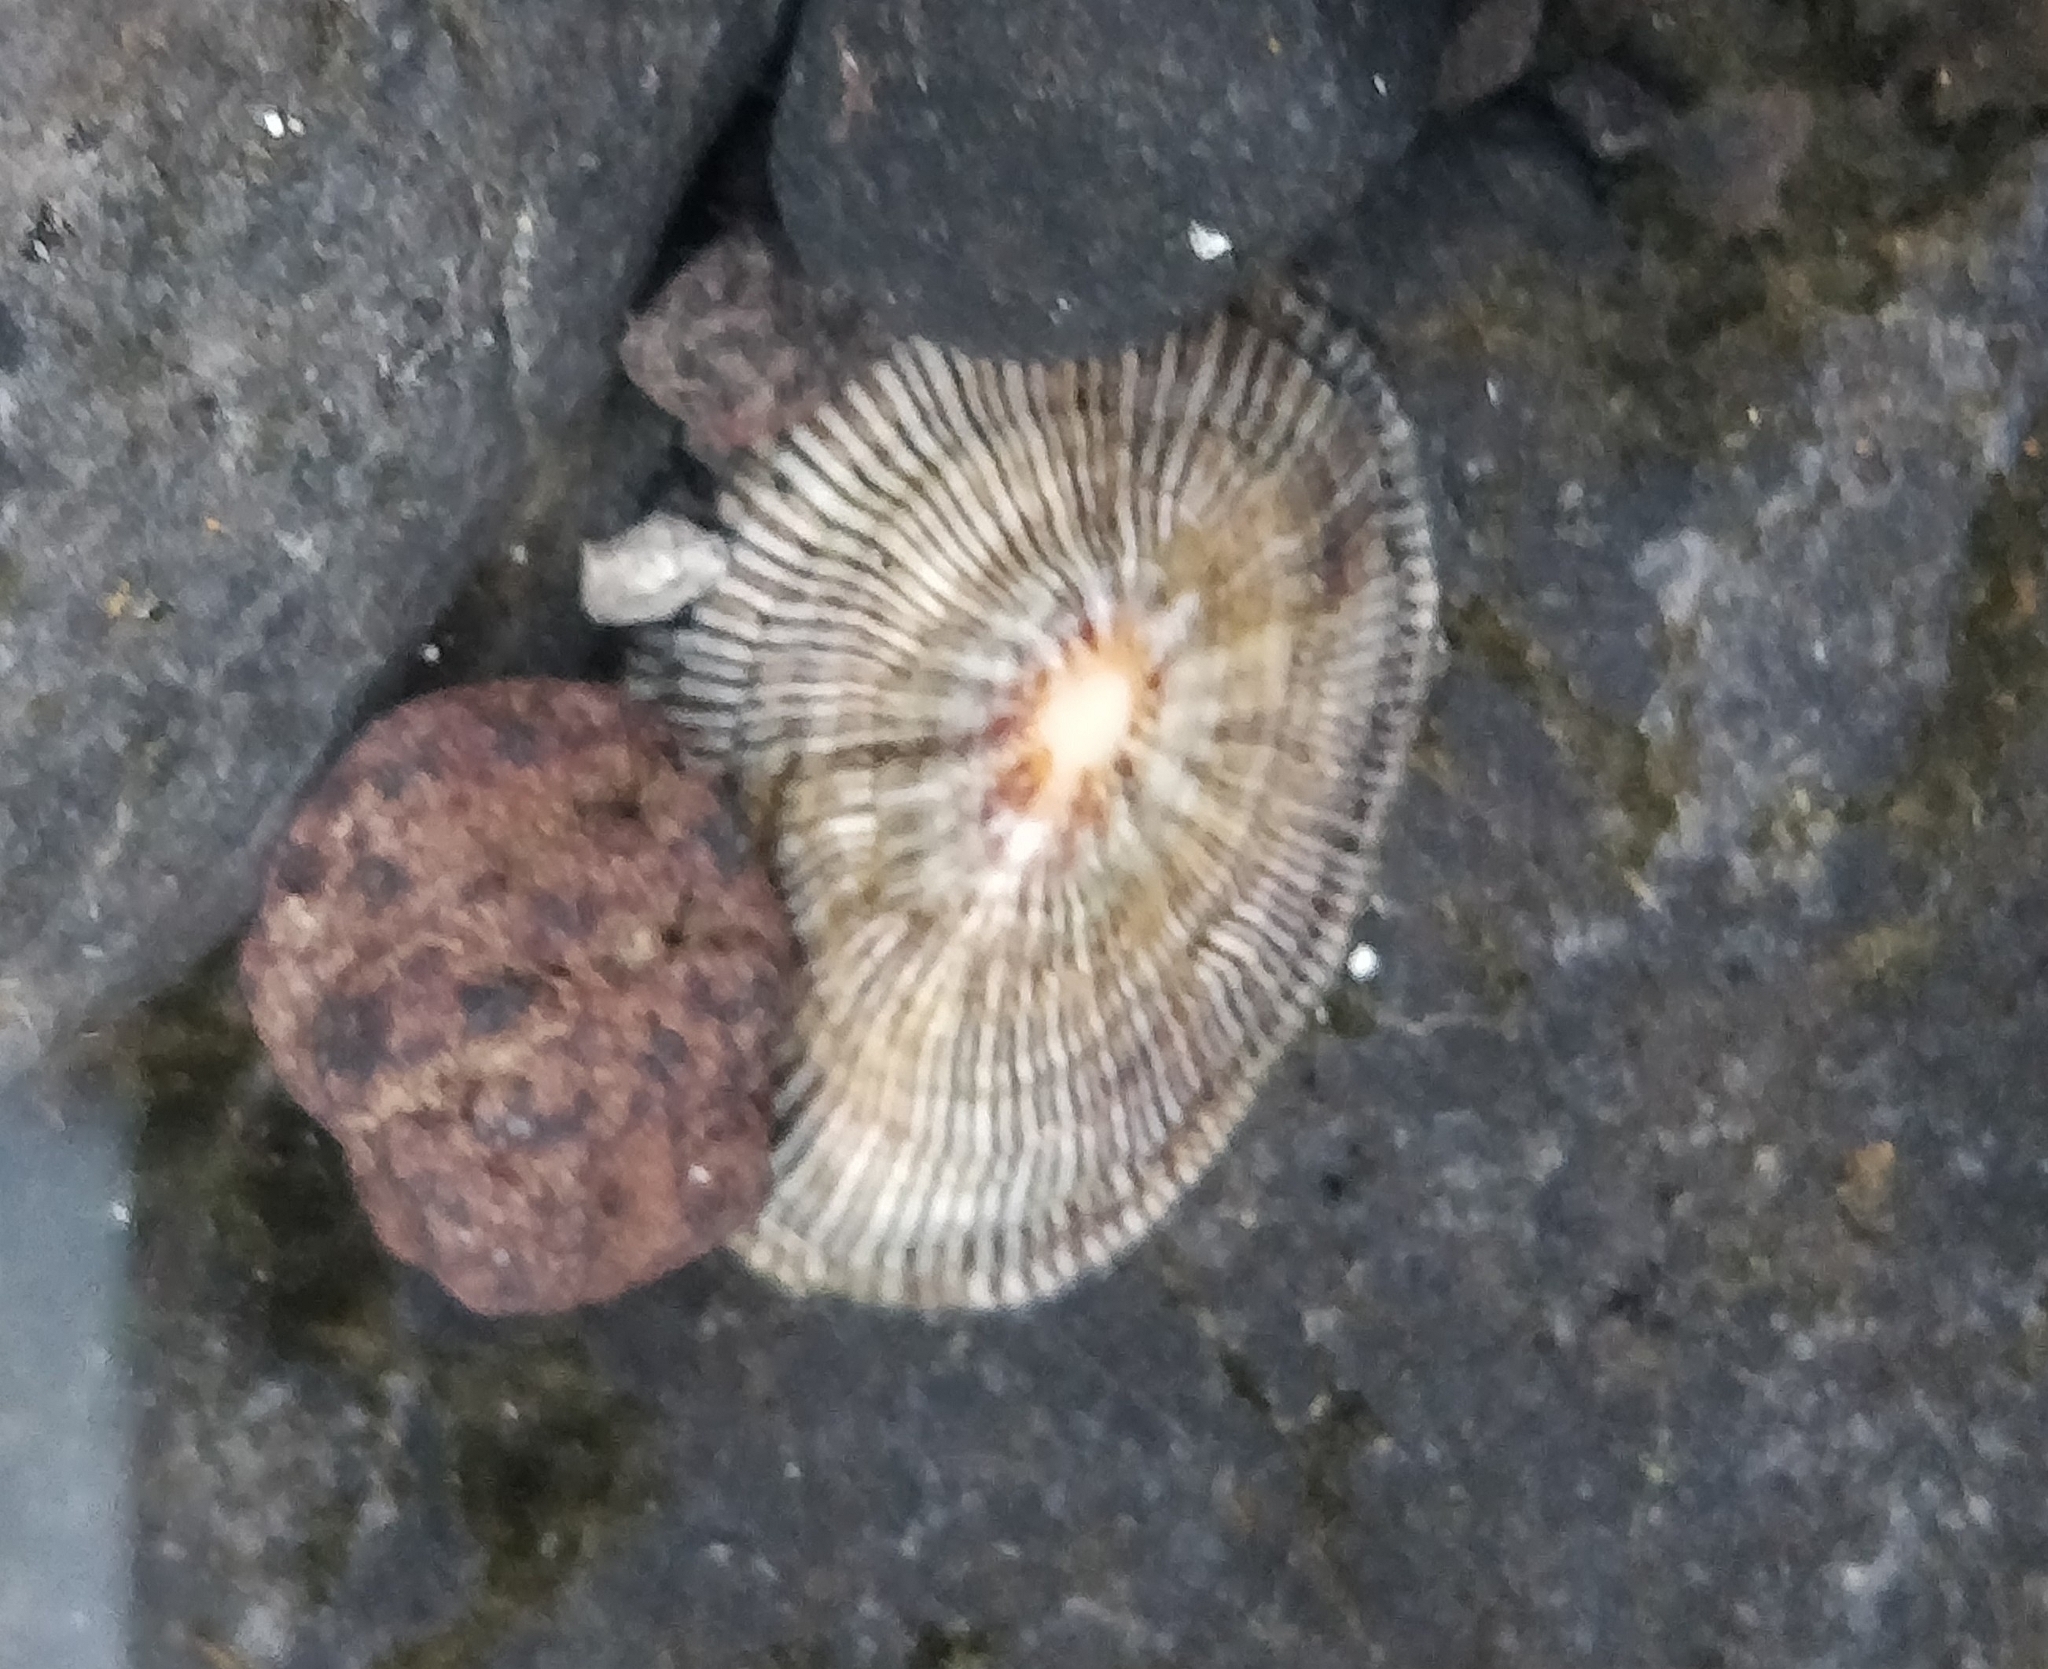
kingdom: Animalia
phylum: Mollusca
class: Gastropoda
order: Siphonariida
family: Siphonariidae
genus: Siphonaria
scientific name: Siphonaria pectinata
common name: Striped false limpet
